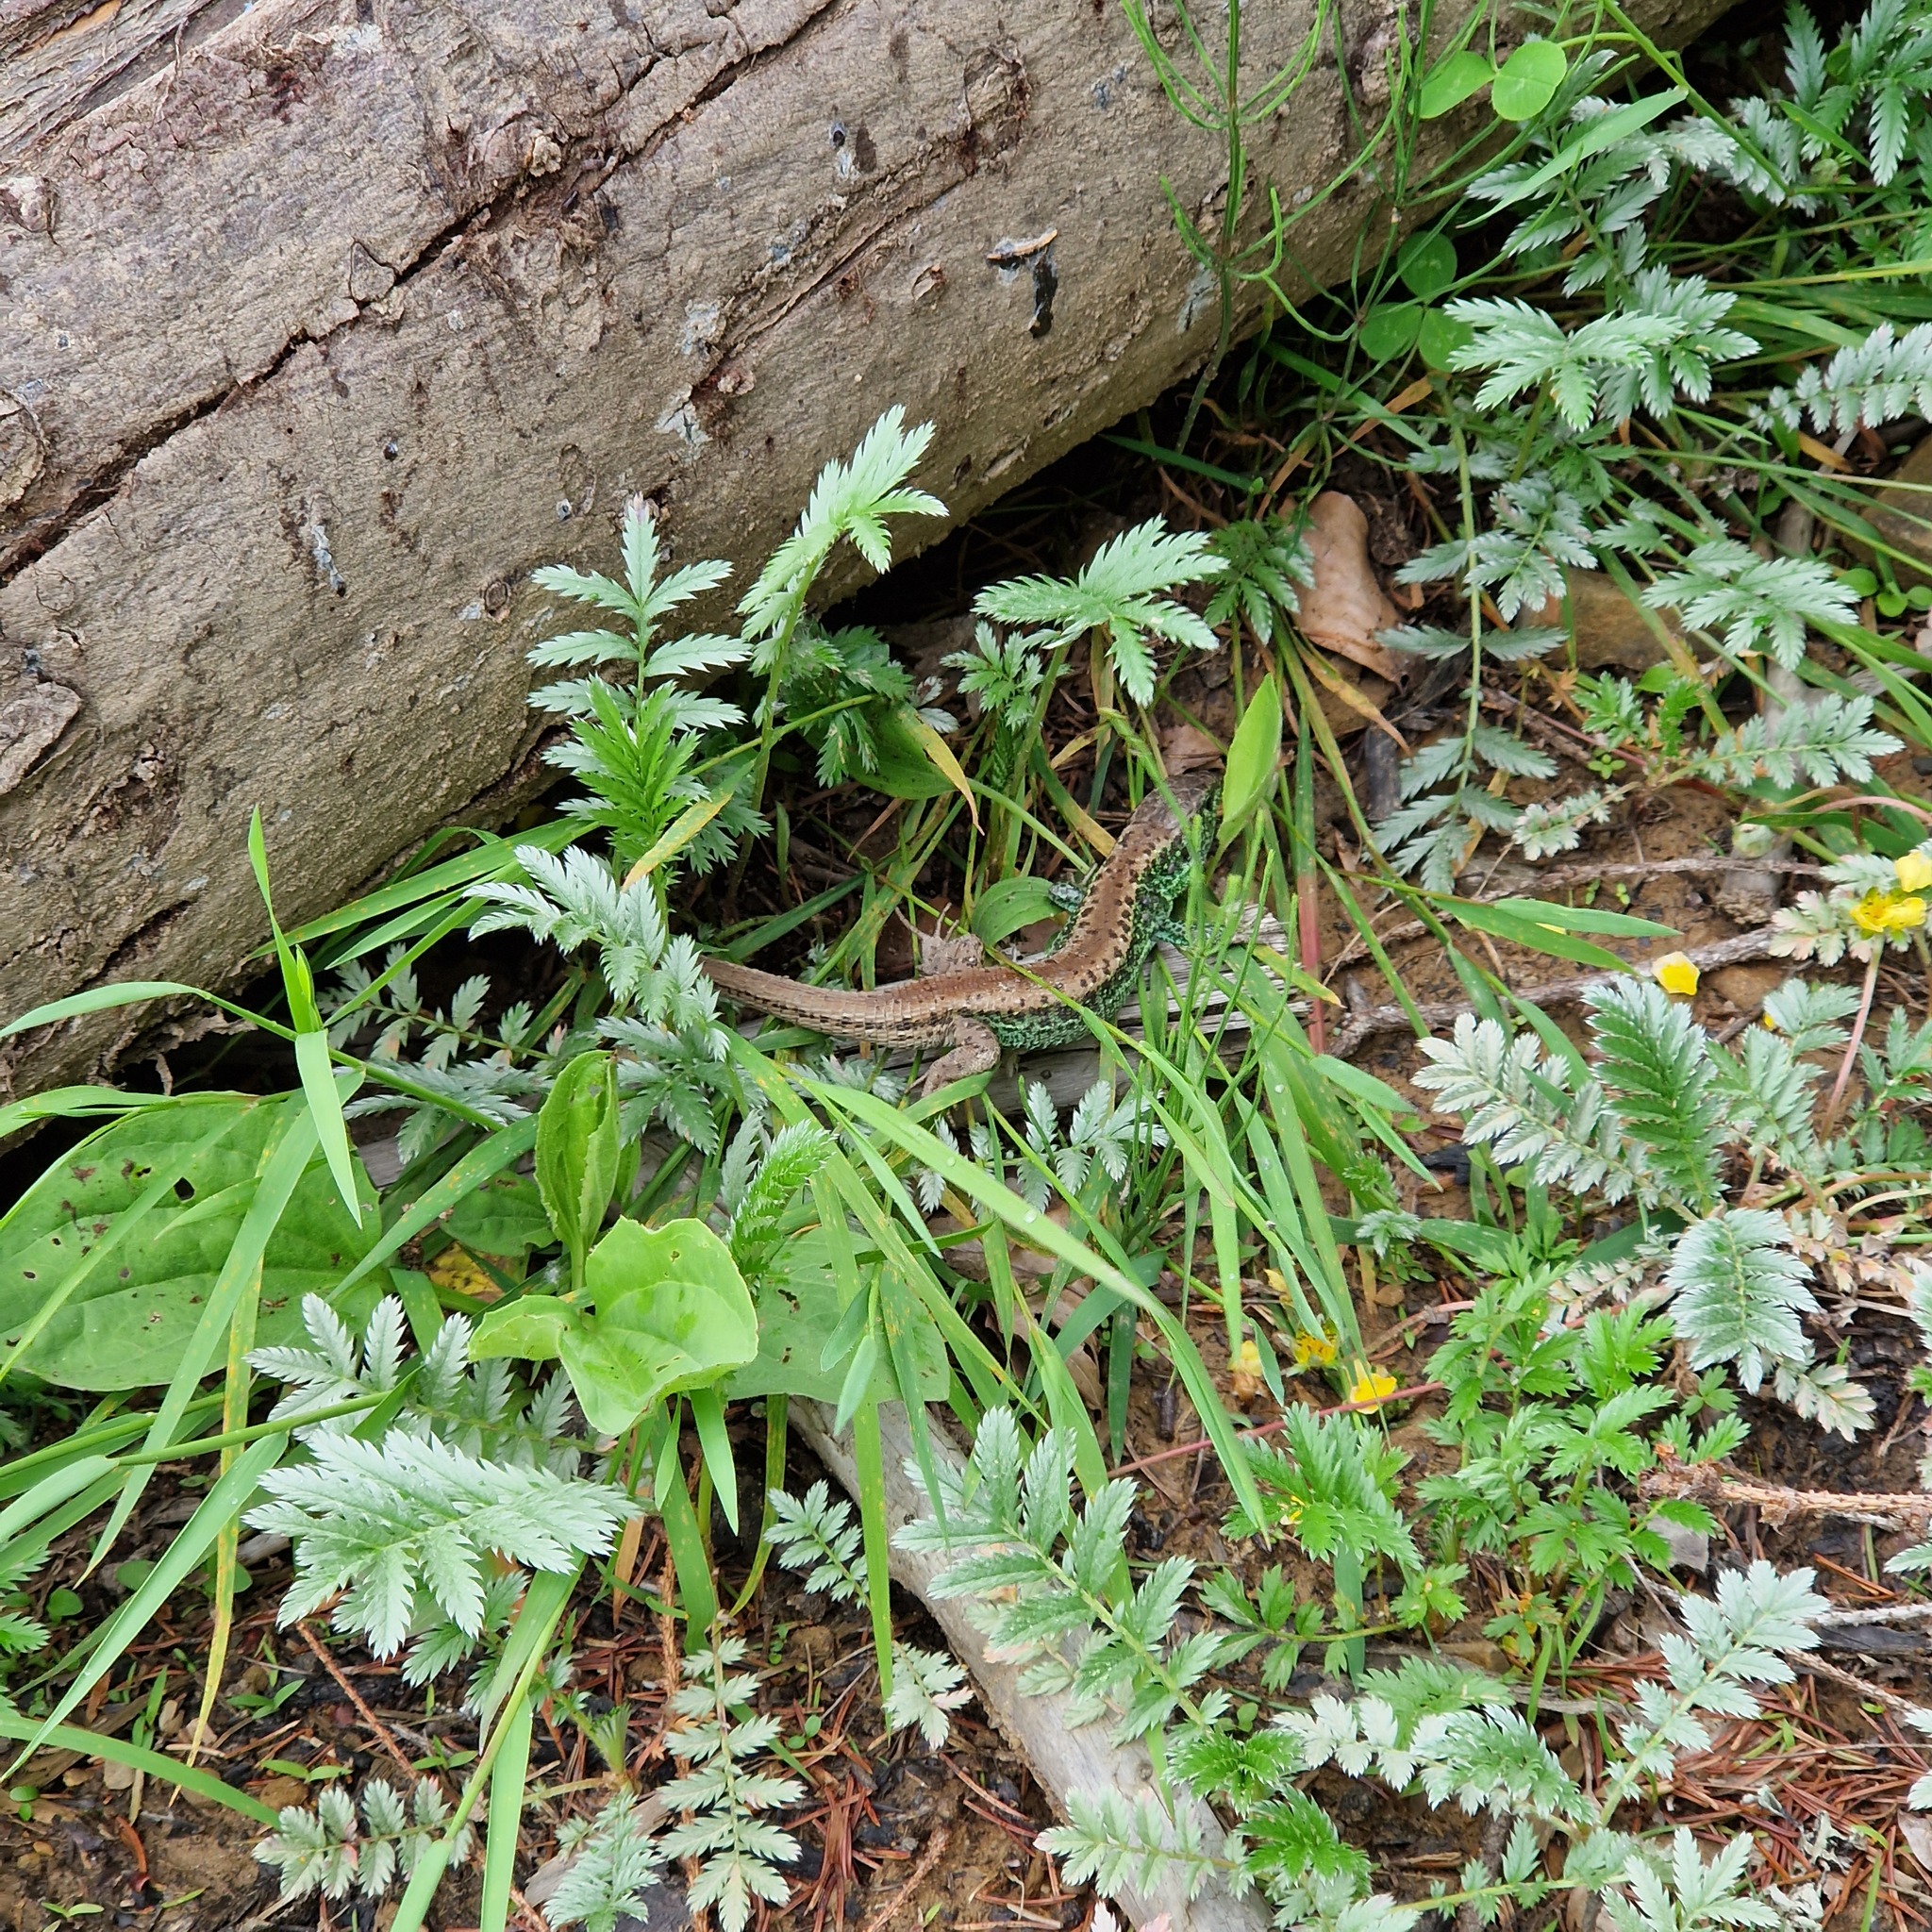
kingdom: Animalia
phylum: Chordata
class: Squamata
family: Lacertidae
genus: Lacerta
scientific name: Lacerta agilis
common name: Sand lizard
